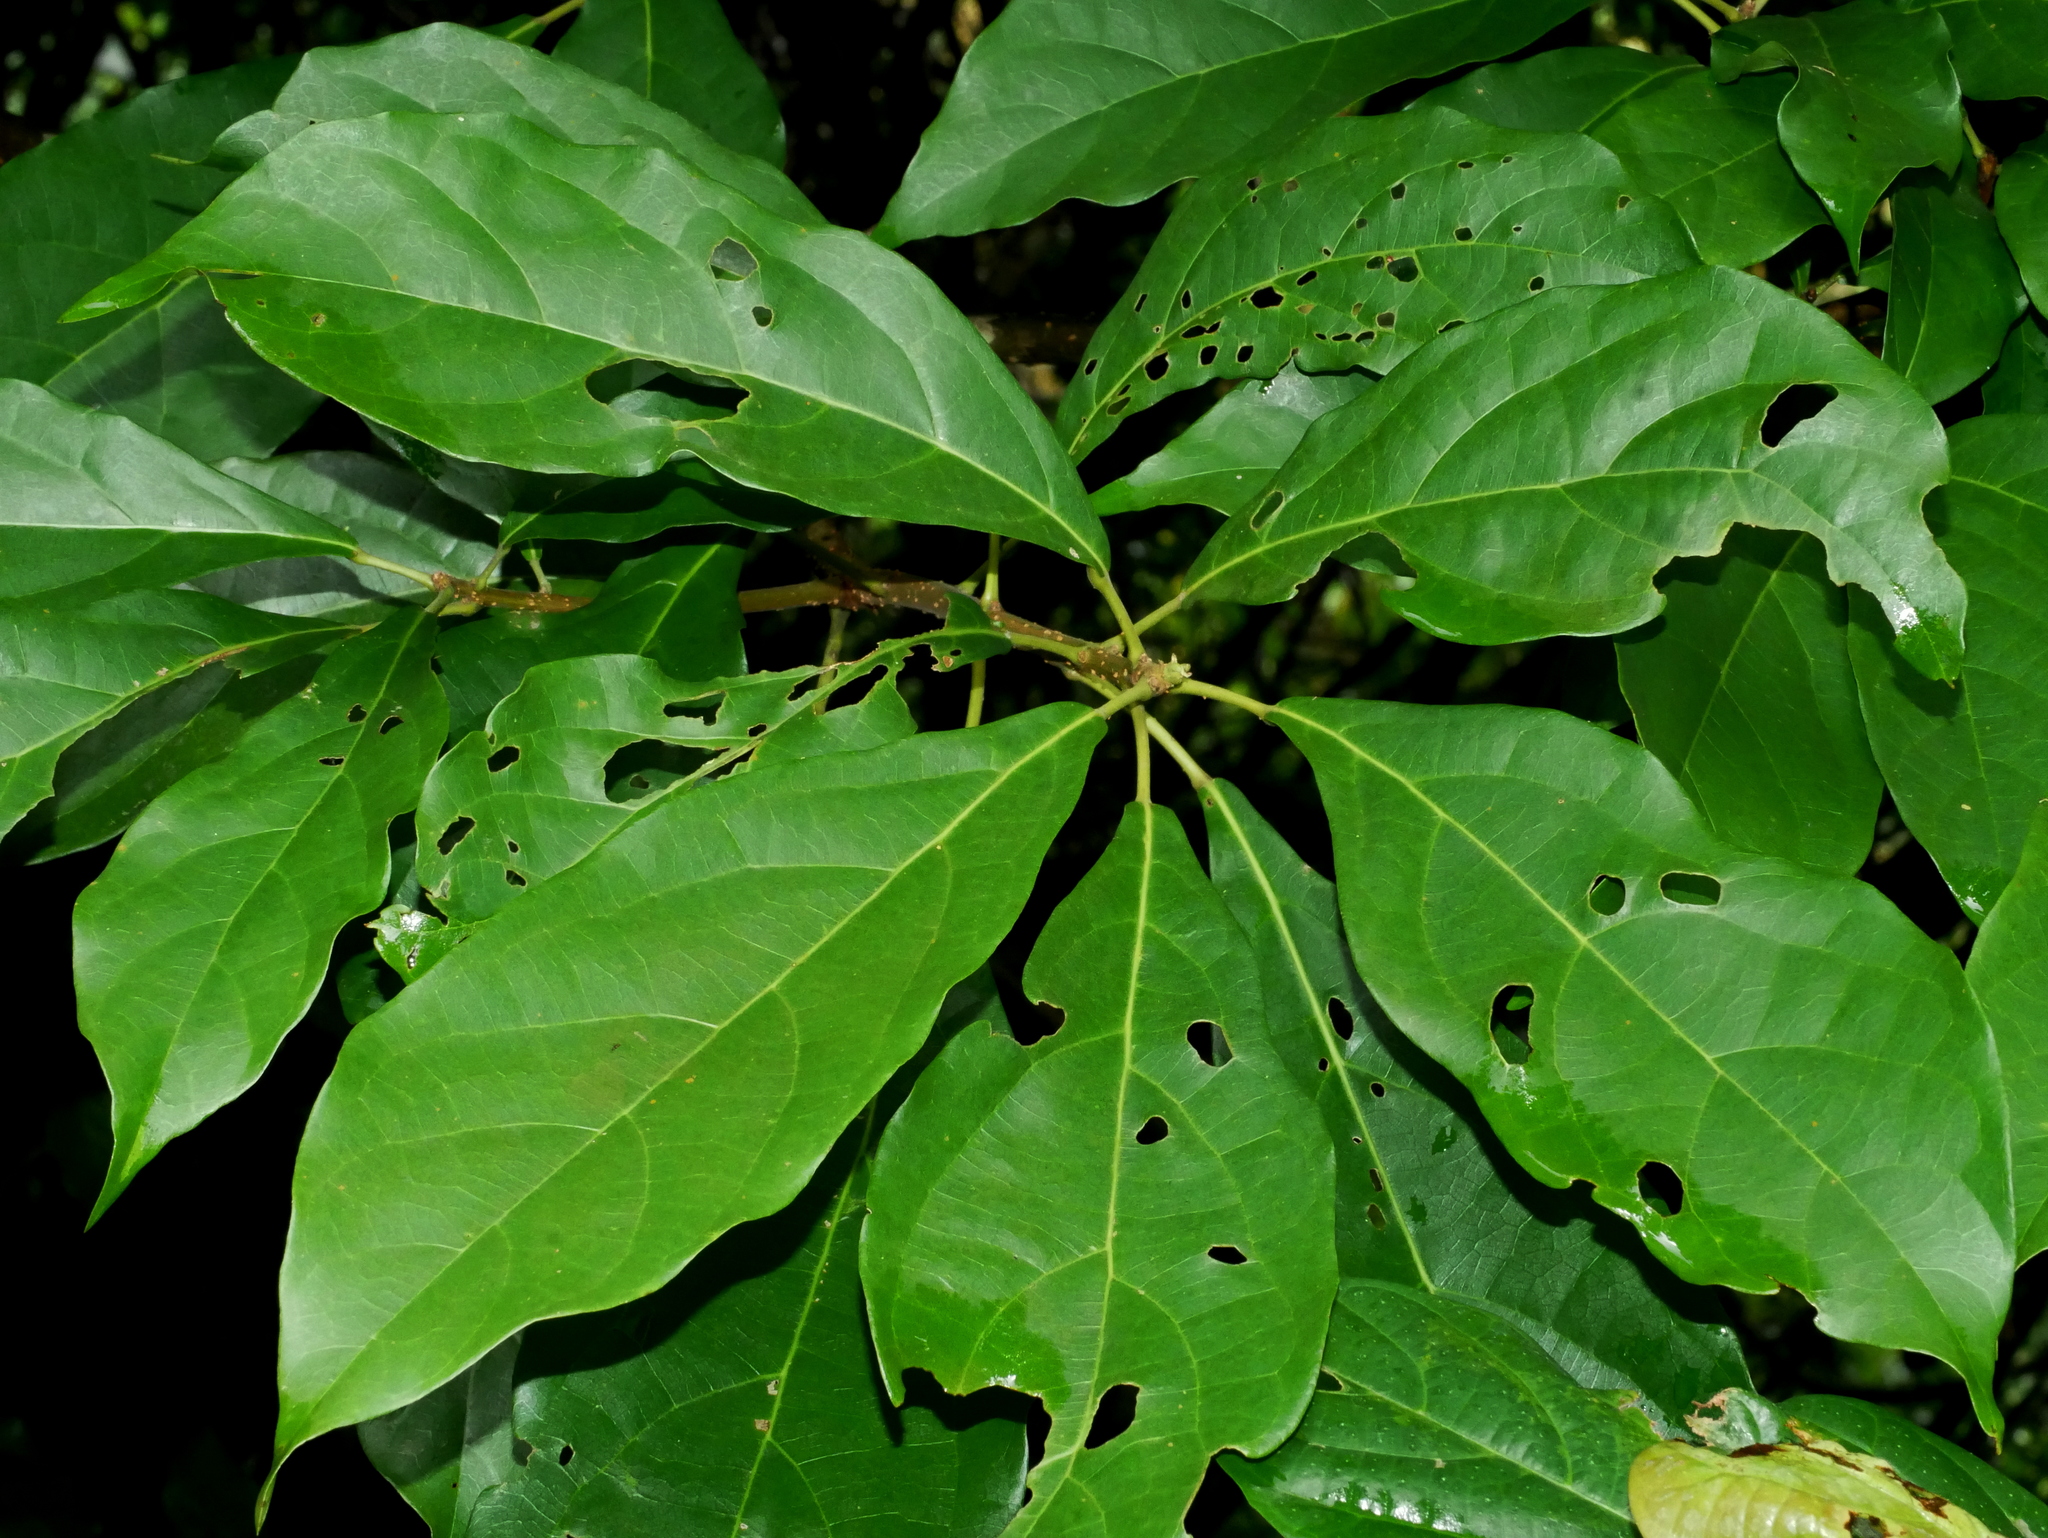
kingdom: Plantae
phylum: Tracheophyta
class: Magnoliopsida
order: Oxalidales
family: Elaeocarpaceae
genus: Sloanea
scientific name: Sloanea dasycarpa
